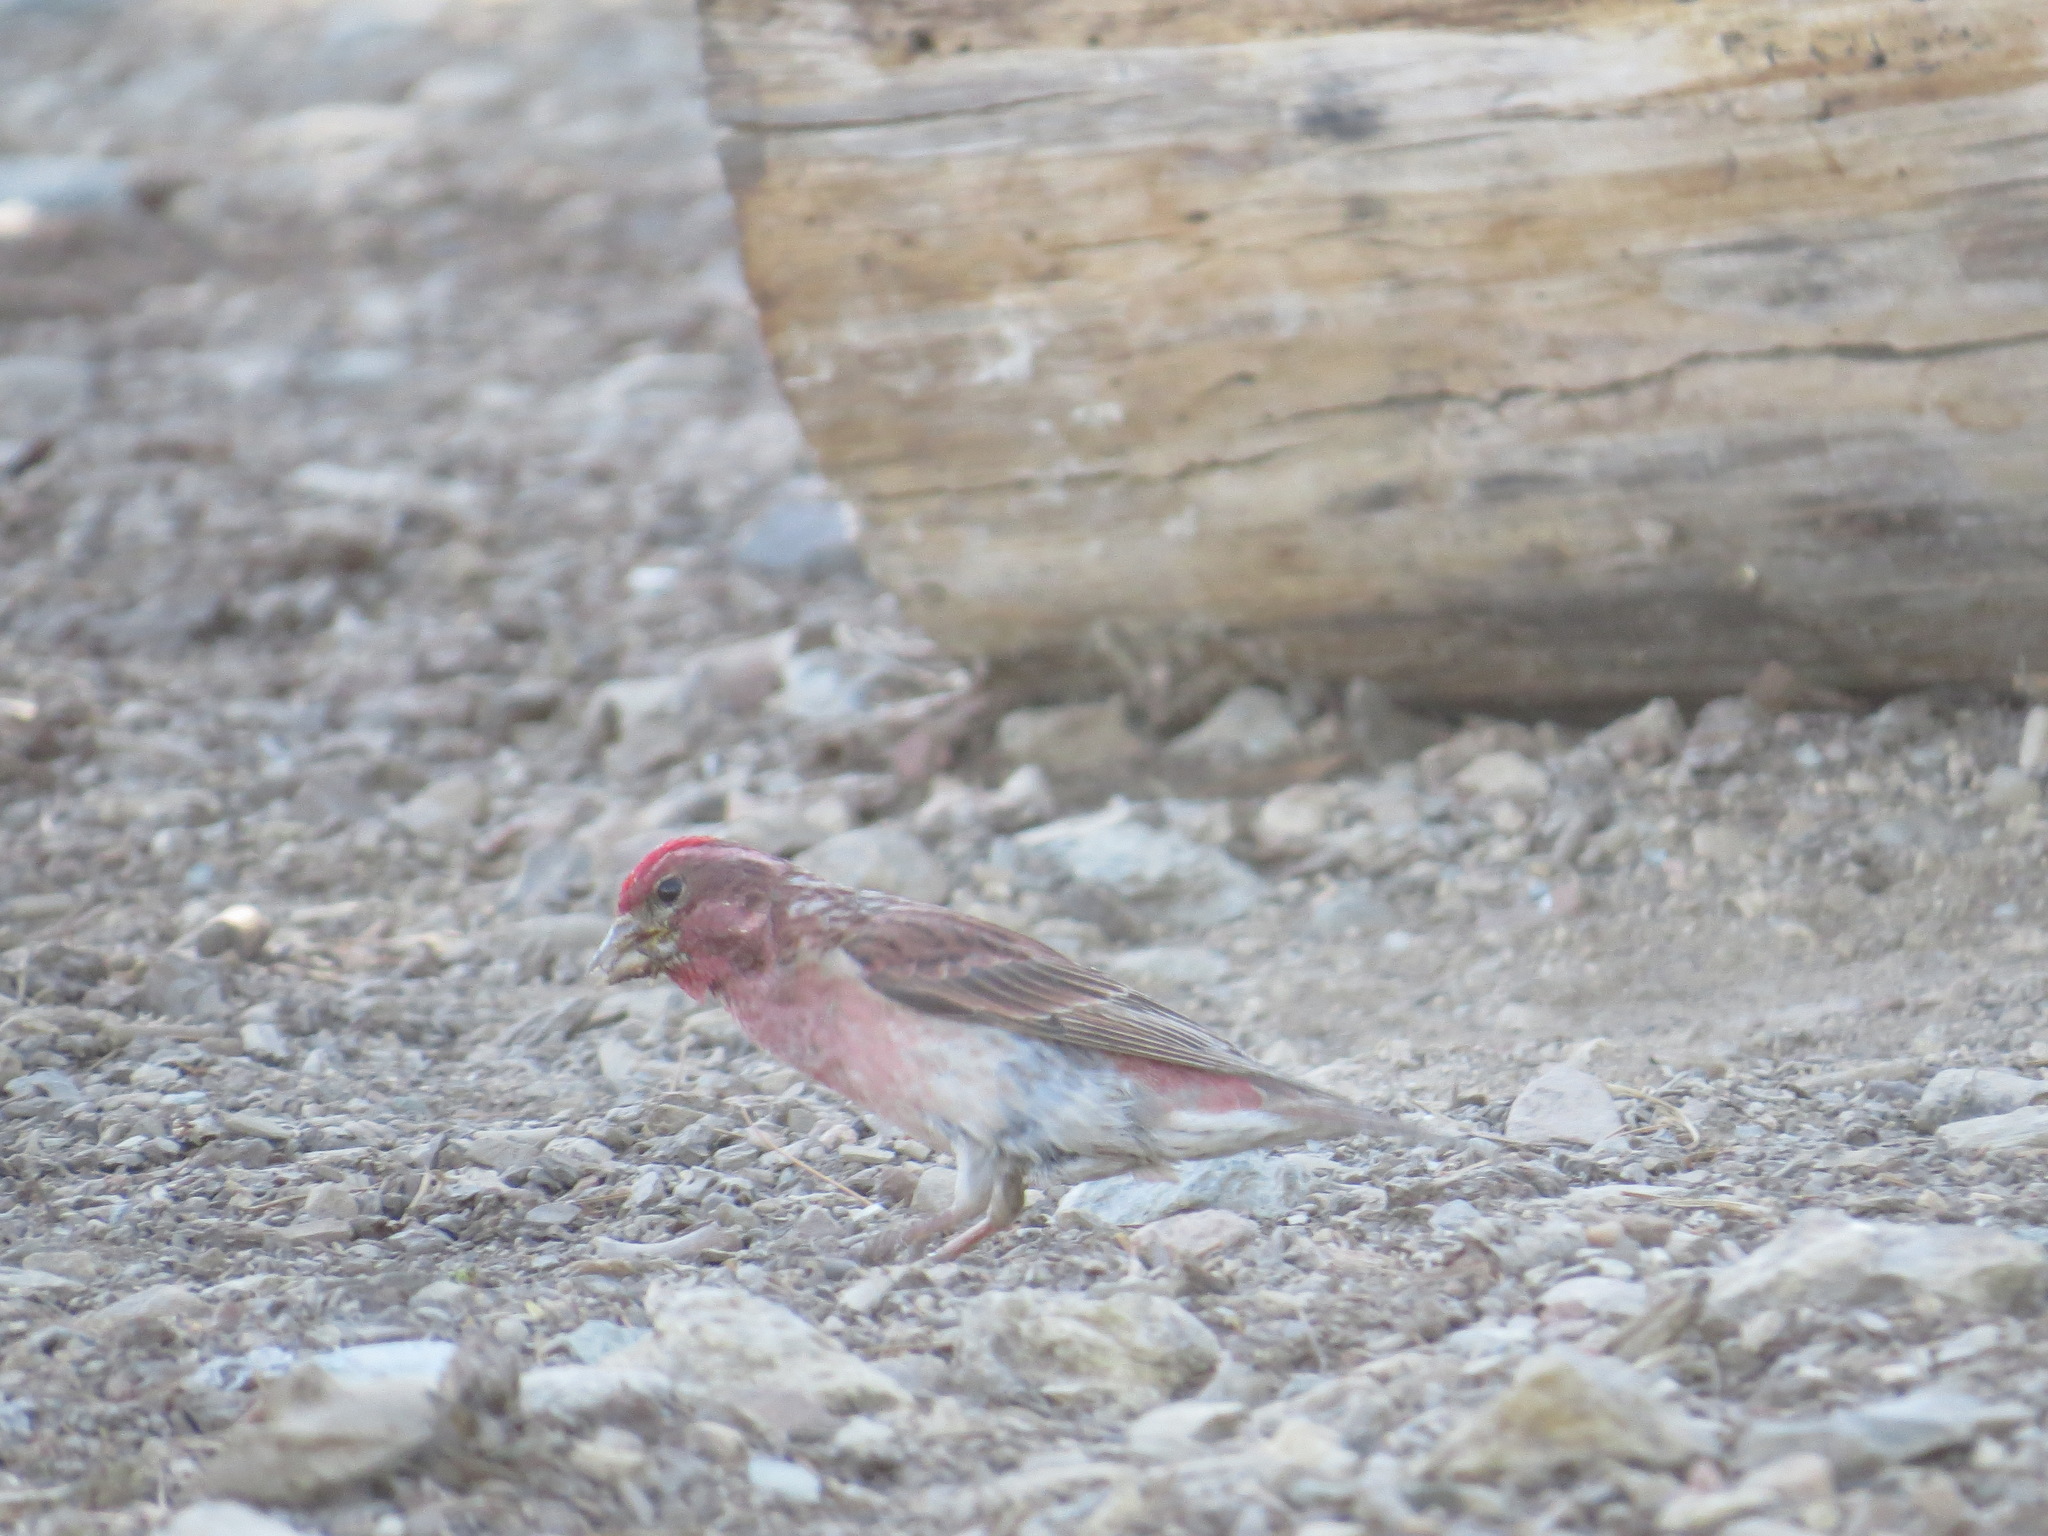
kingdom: Animalia
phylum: Chordata
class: Aves
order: Passeriformes
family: Fringillidae
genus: Haemorhous
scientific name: Haemorhous cassinii
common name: Cassin's finch
